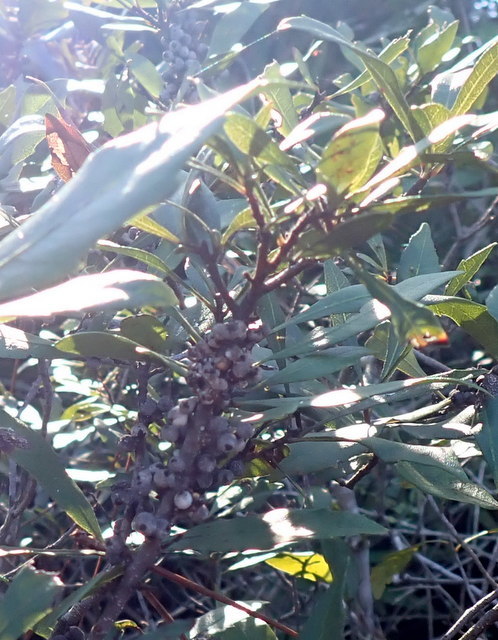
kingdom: Plantae
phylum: Tracheophyta
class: Magnoliopsida
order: Fagales
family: Myricaceae
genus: Morella
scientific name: Morella cerifera
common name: Wax myrtle
